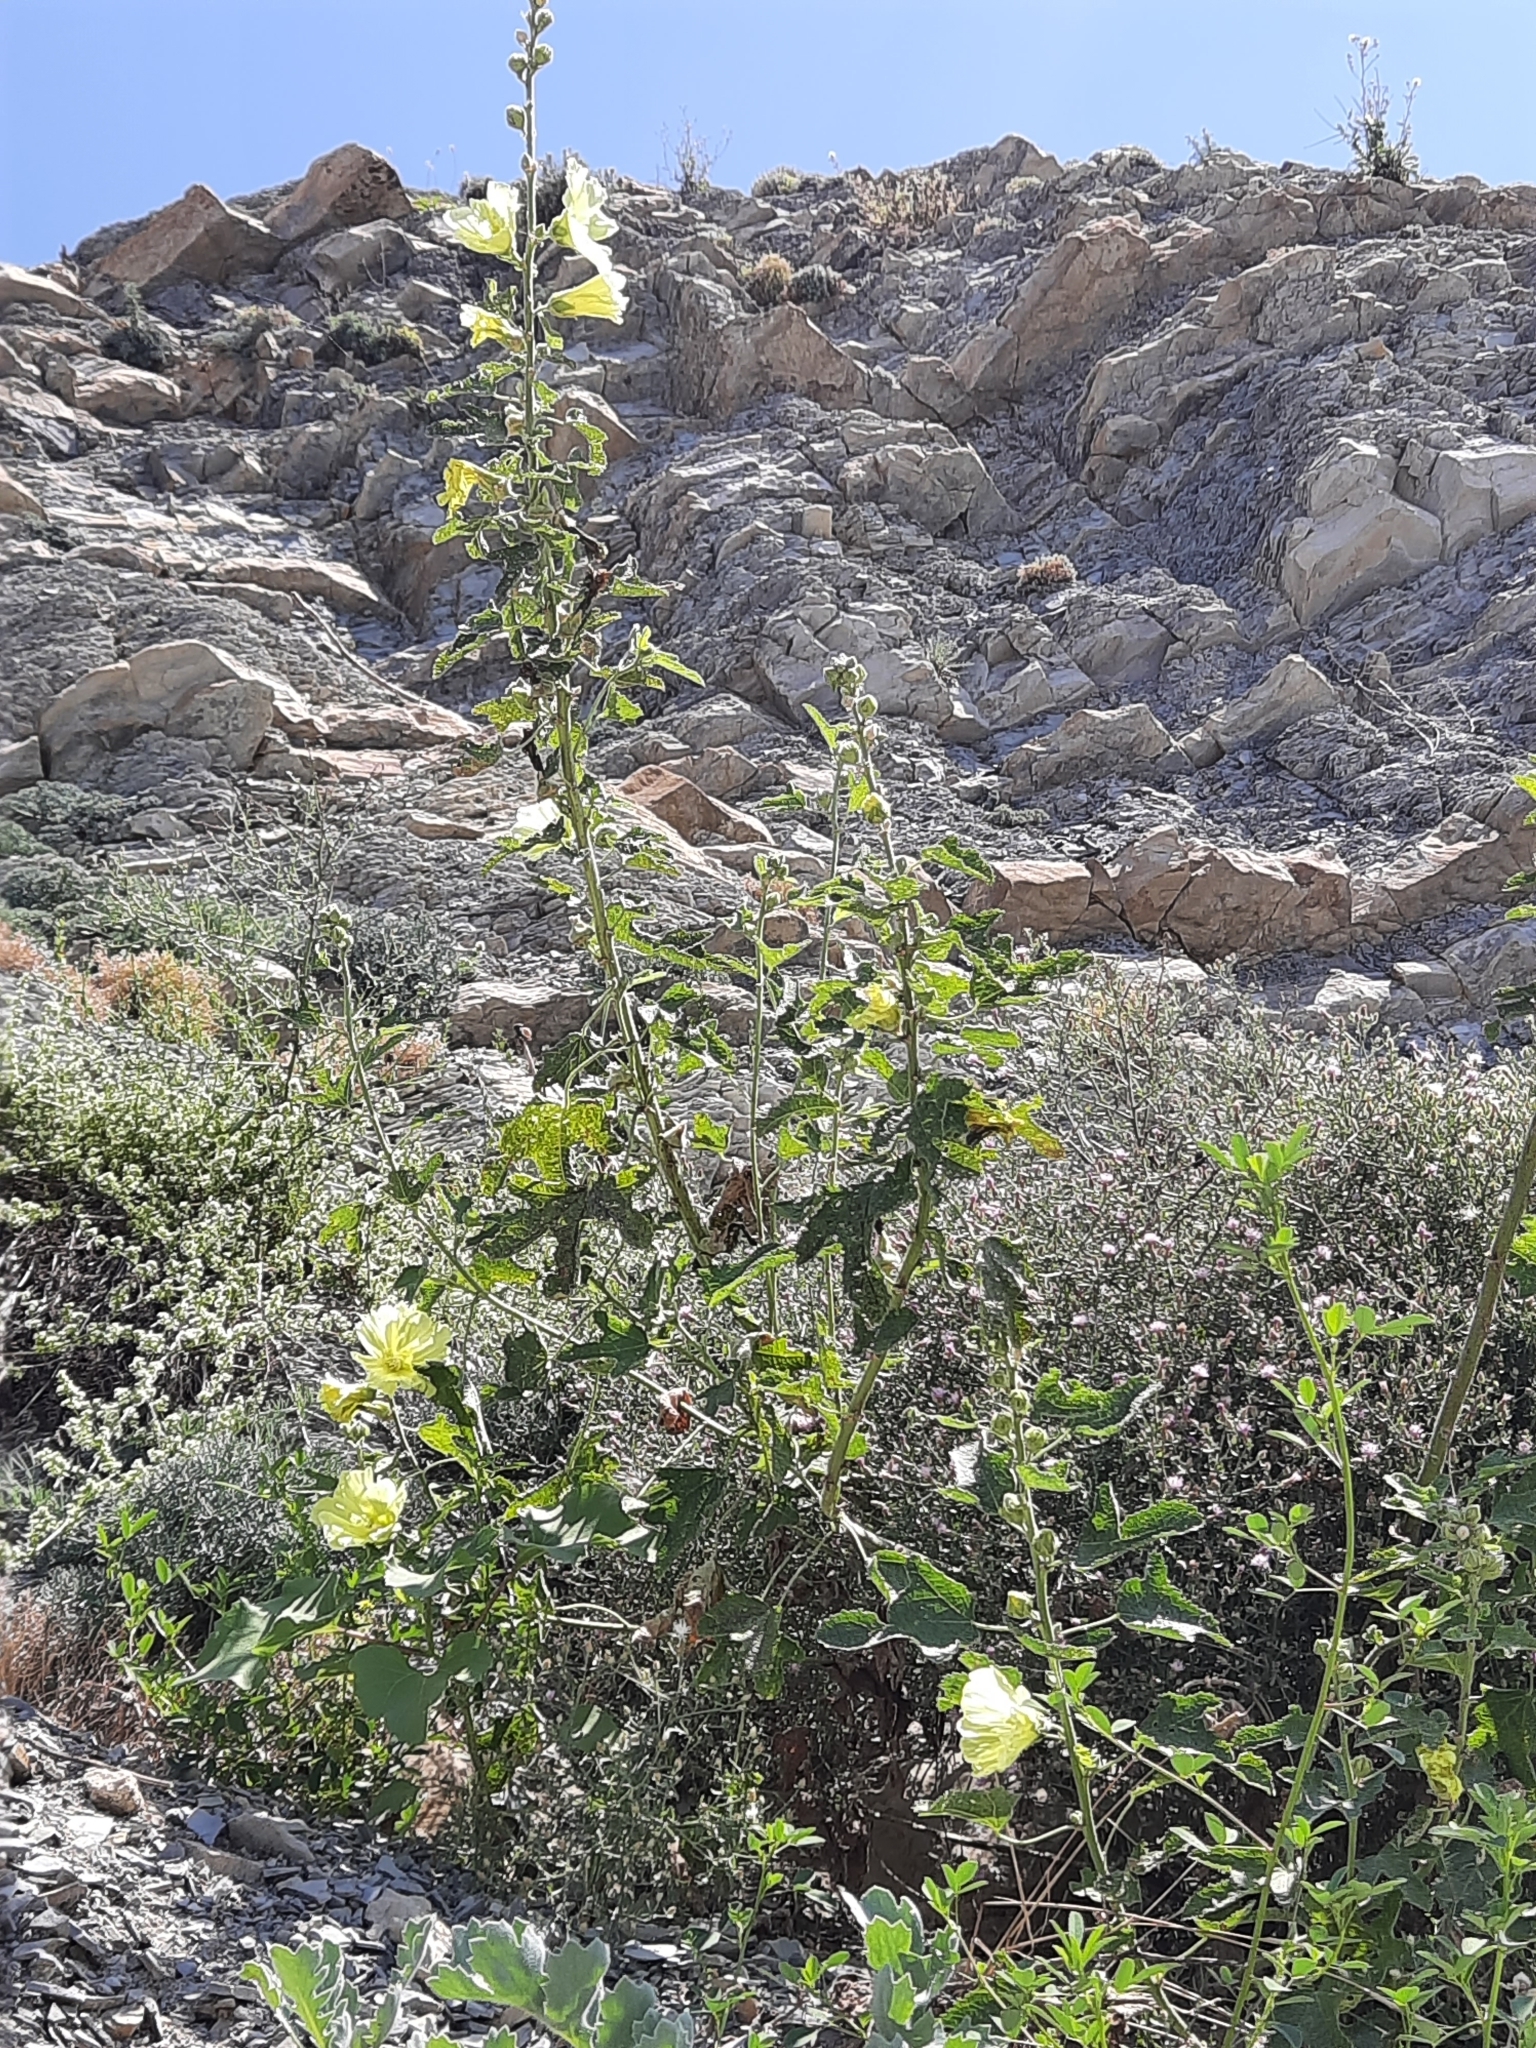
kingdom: Plantae
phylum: Tracheophyta
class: Magnoliopsida
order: Malvales
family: Malvaceae
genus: Alcea
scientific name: Alcea rugosa
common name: Russian hollyhock
